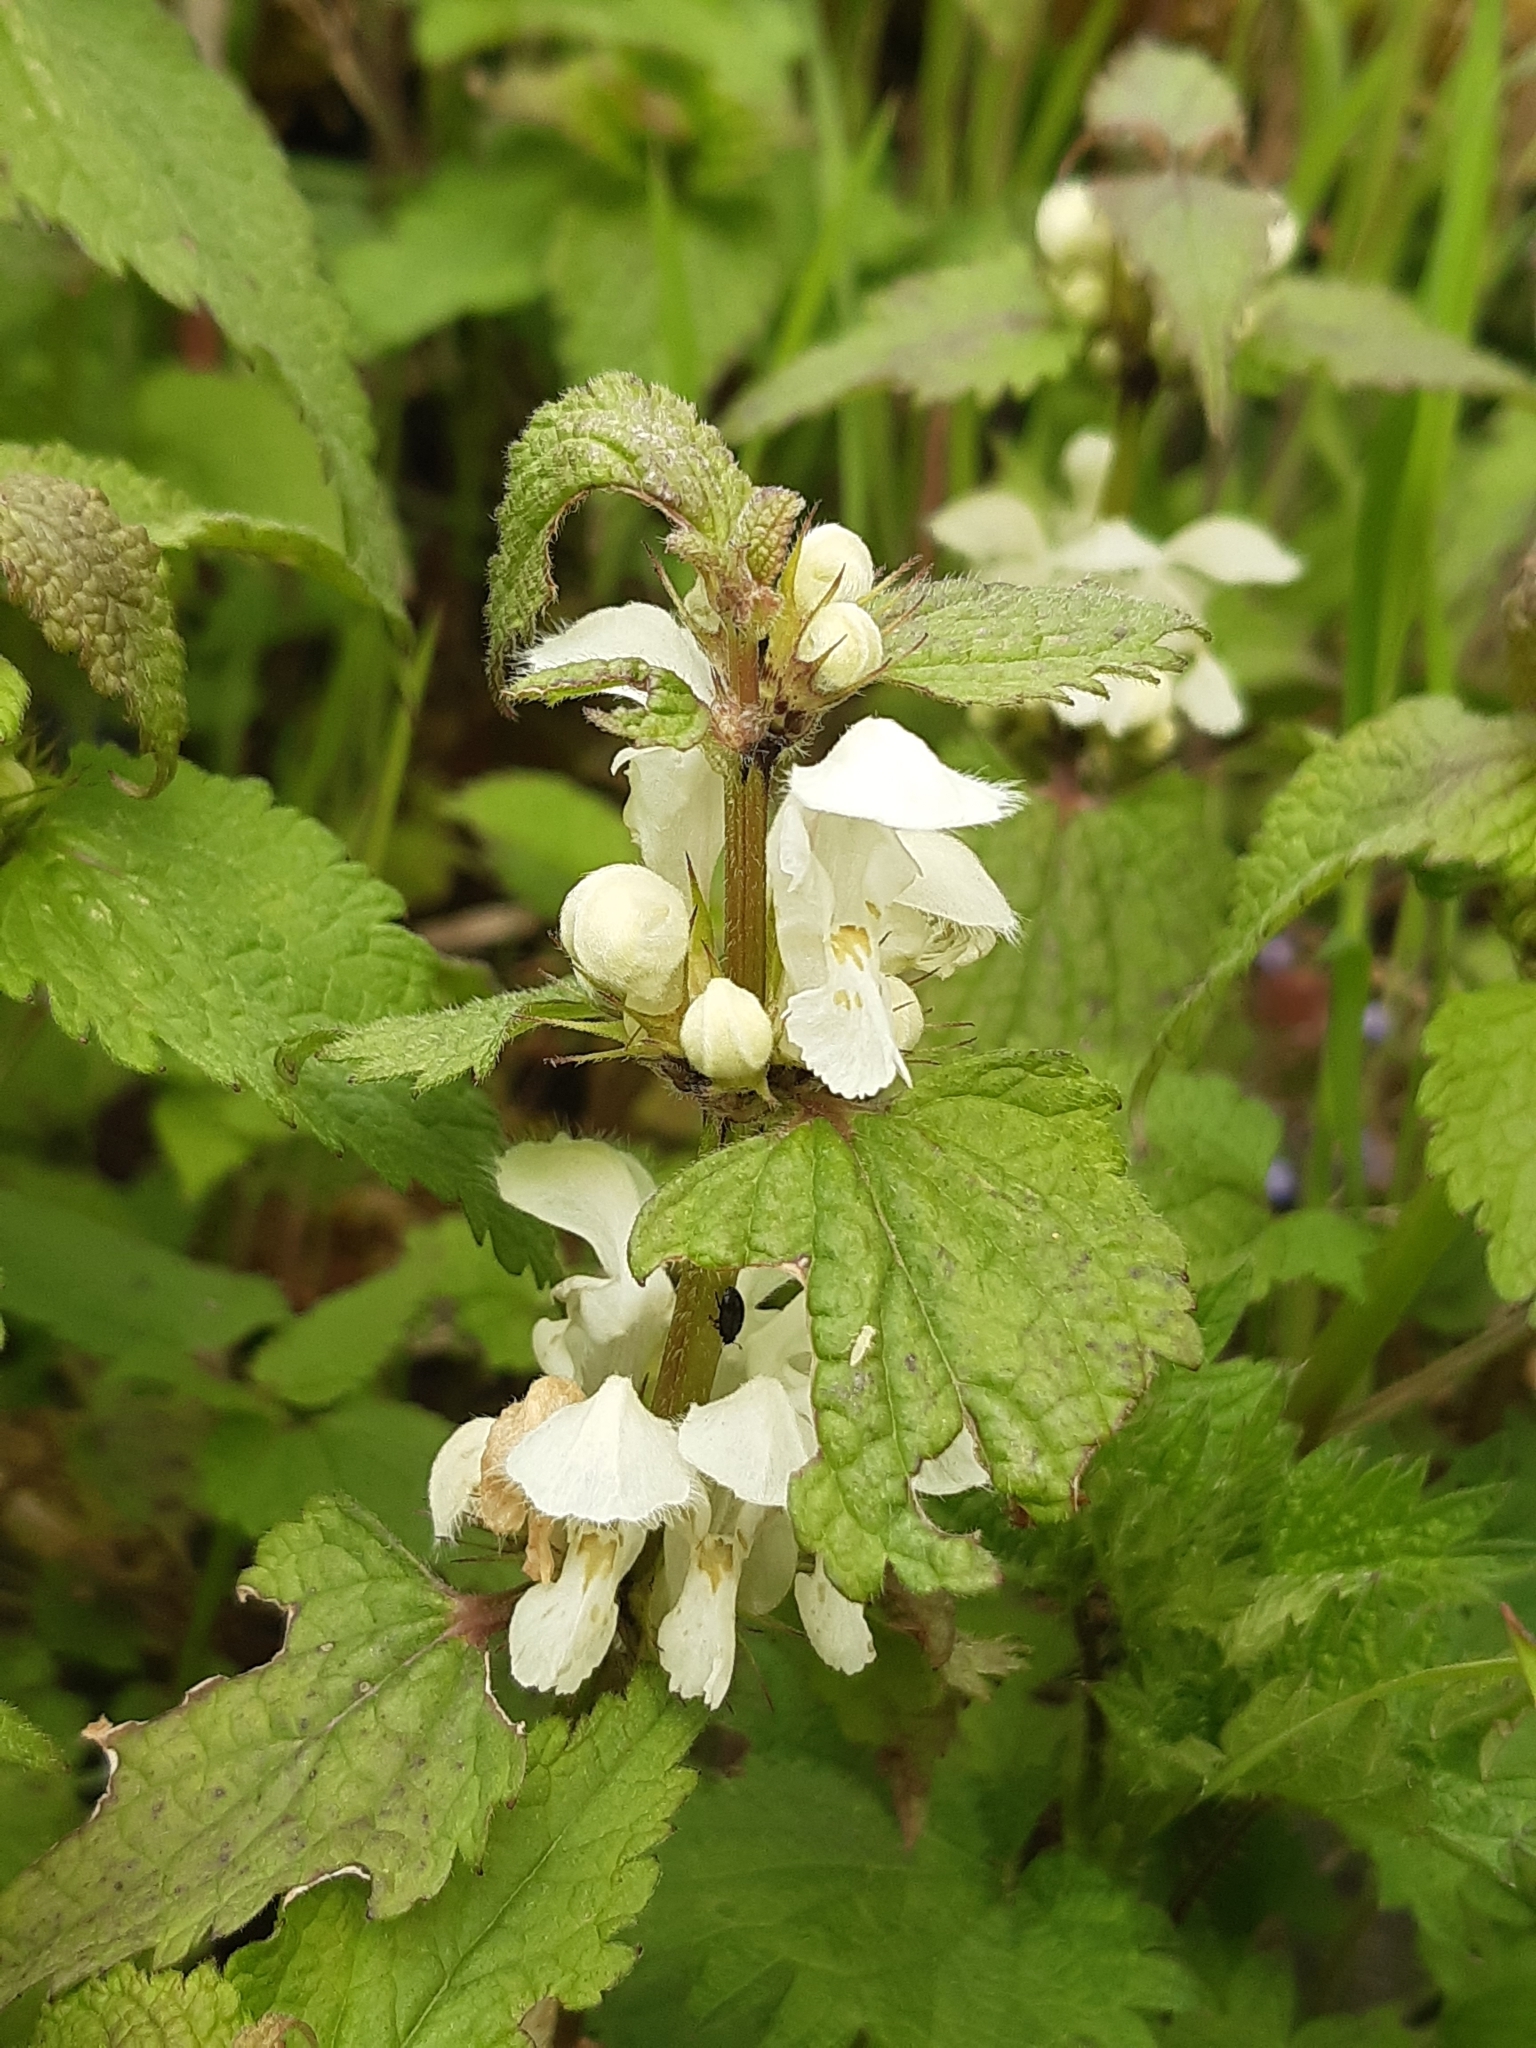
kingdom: Plantae
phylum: Tracheophyta
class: Magnoliopsida
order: Lamiales
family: Lamiaceae
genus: Lamium
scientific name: Lamium album
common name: White dead-nettle
